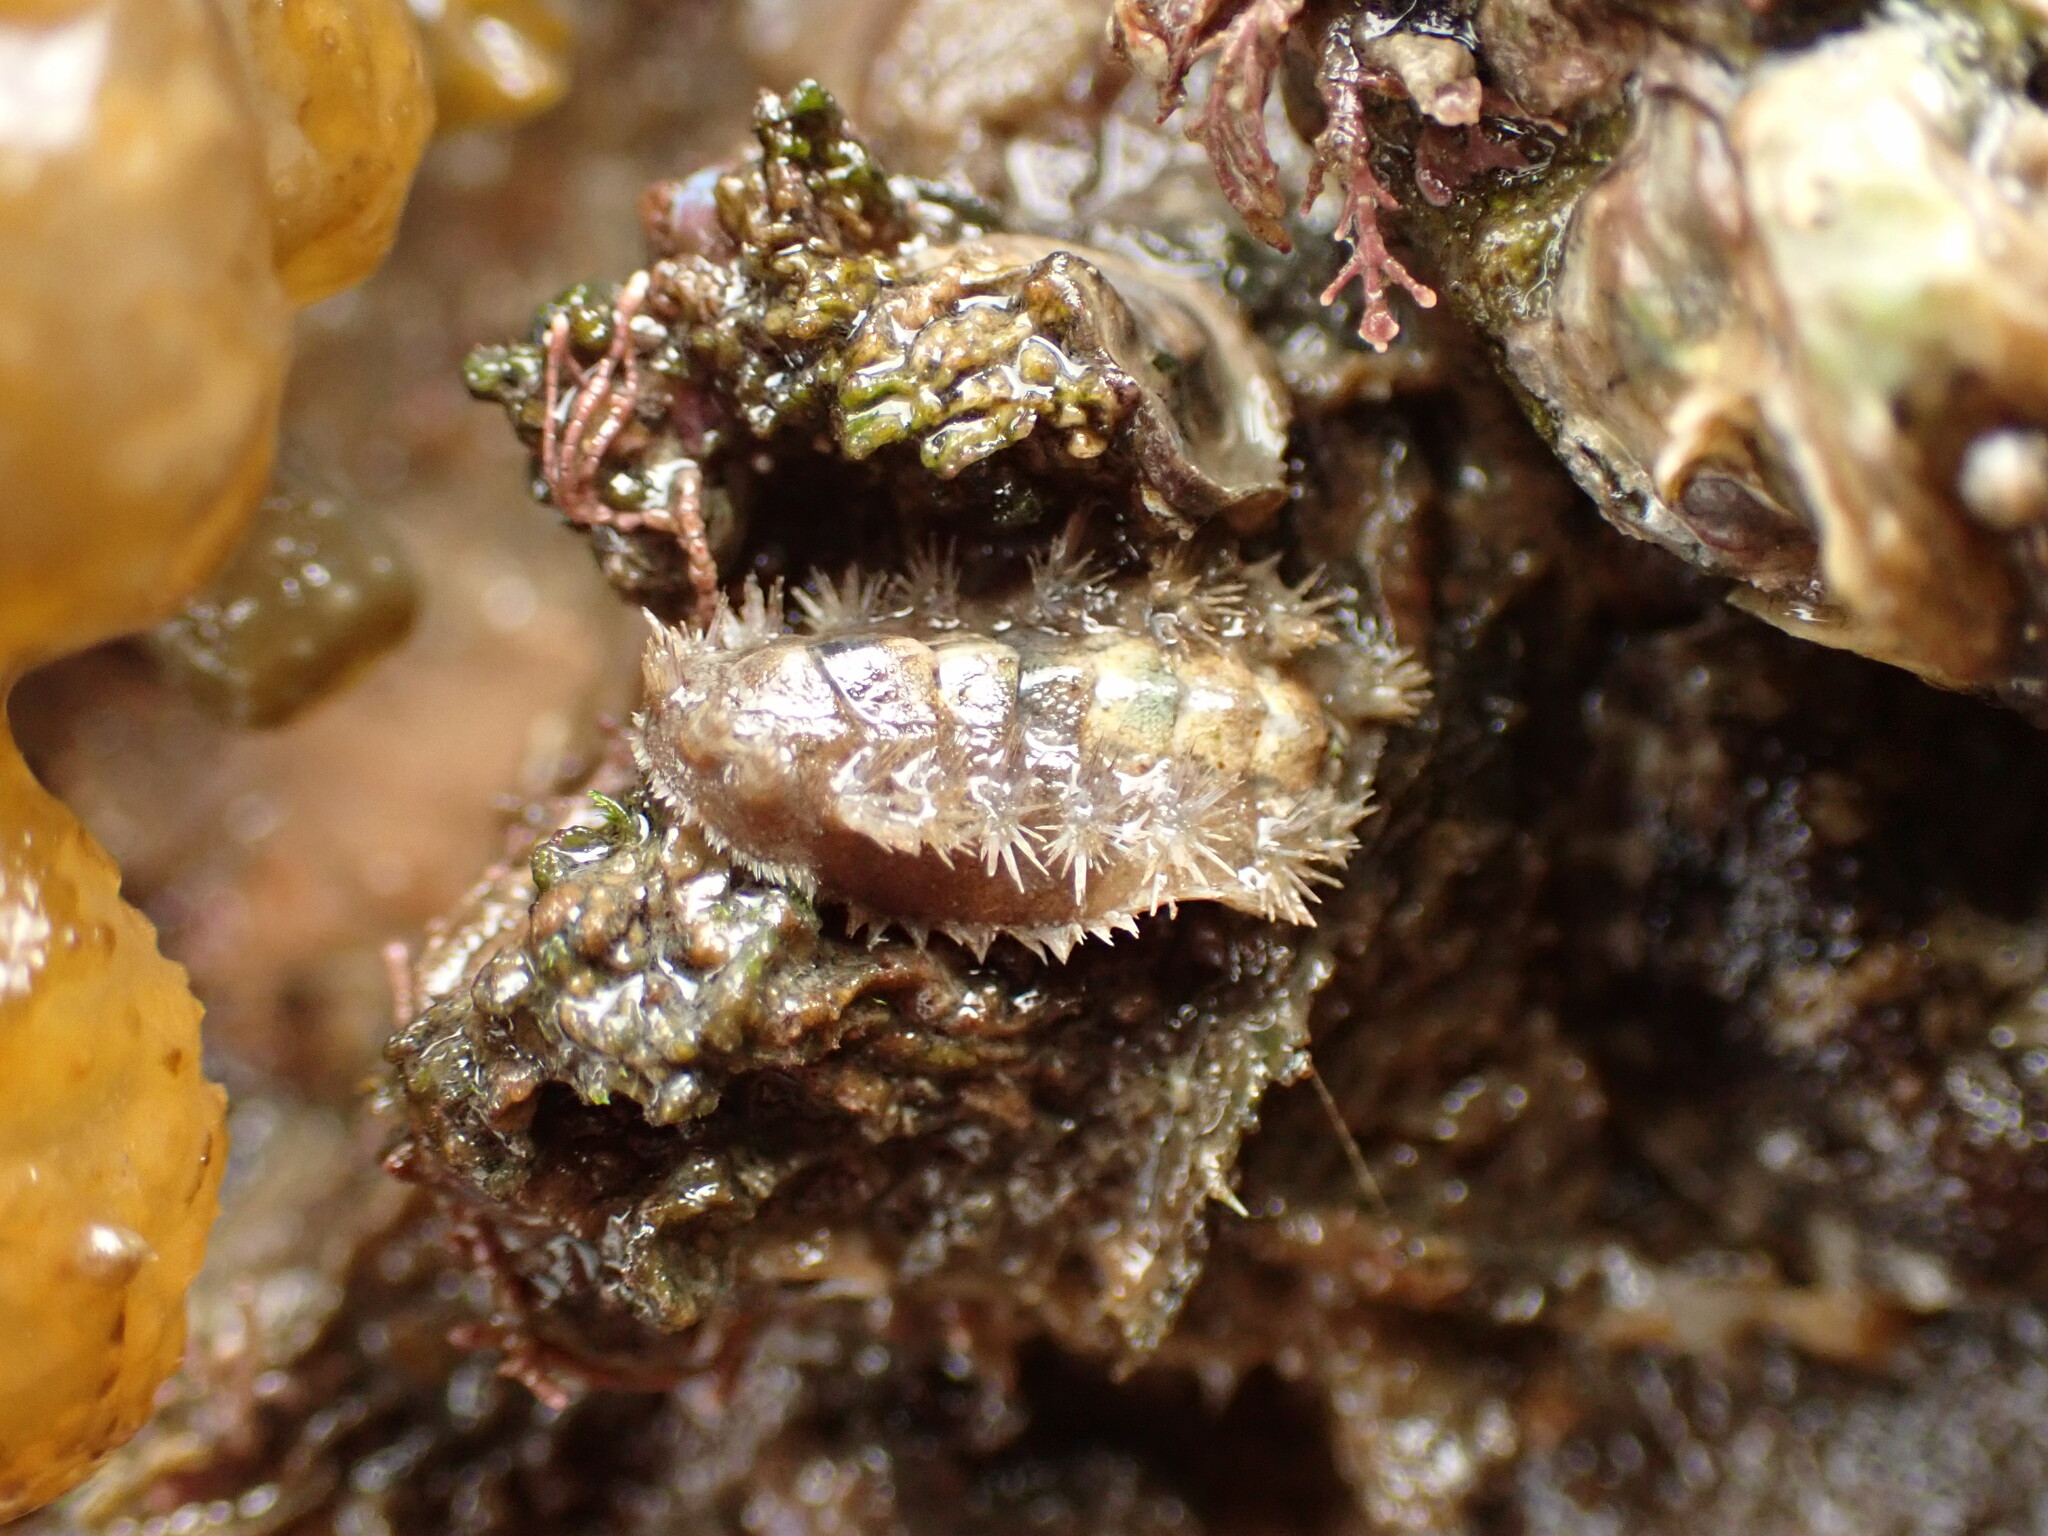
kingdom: Animalia
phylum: Mollusca
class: Polyplacophora
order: Chitonida
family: Acanthochitonidae
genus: Acanthochitona
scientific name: Acanthochitona zelandica
